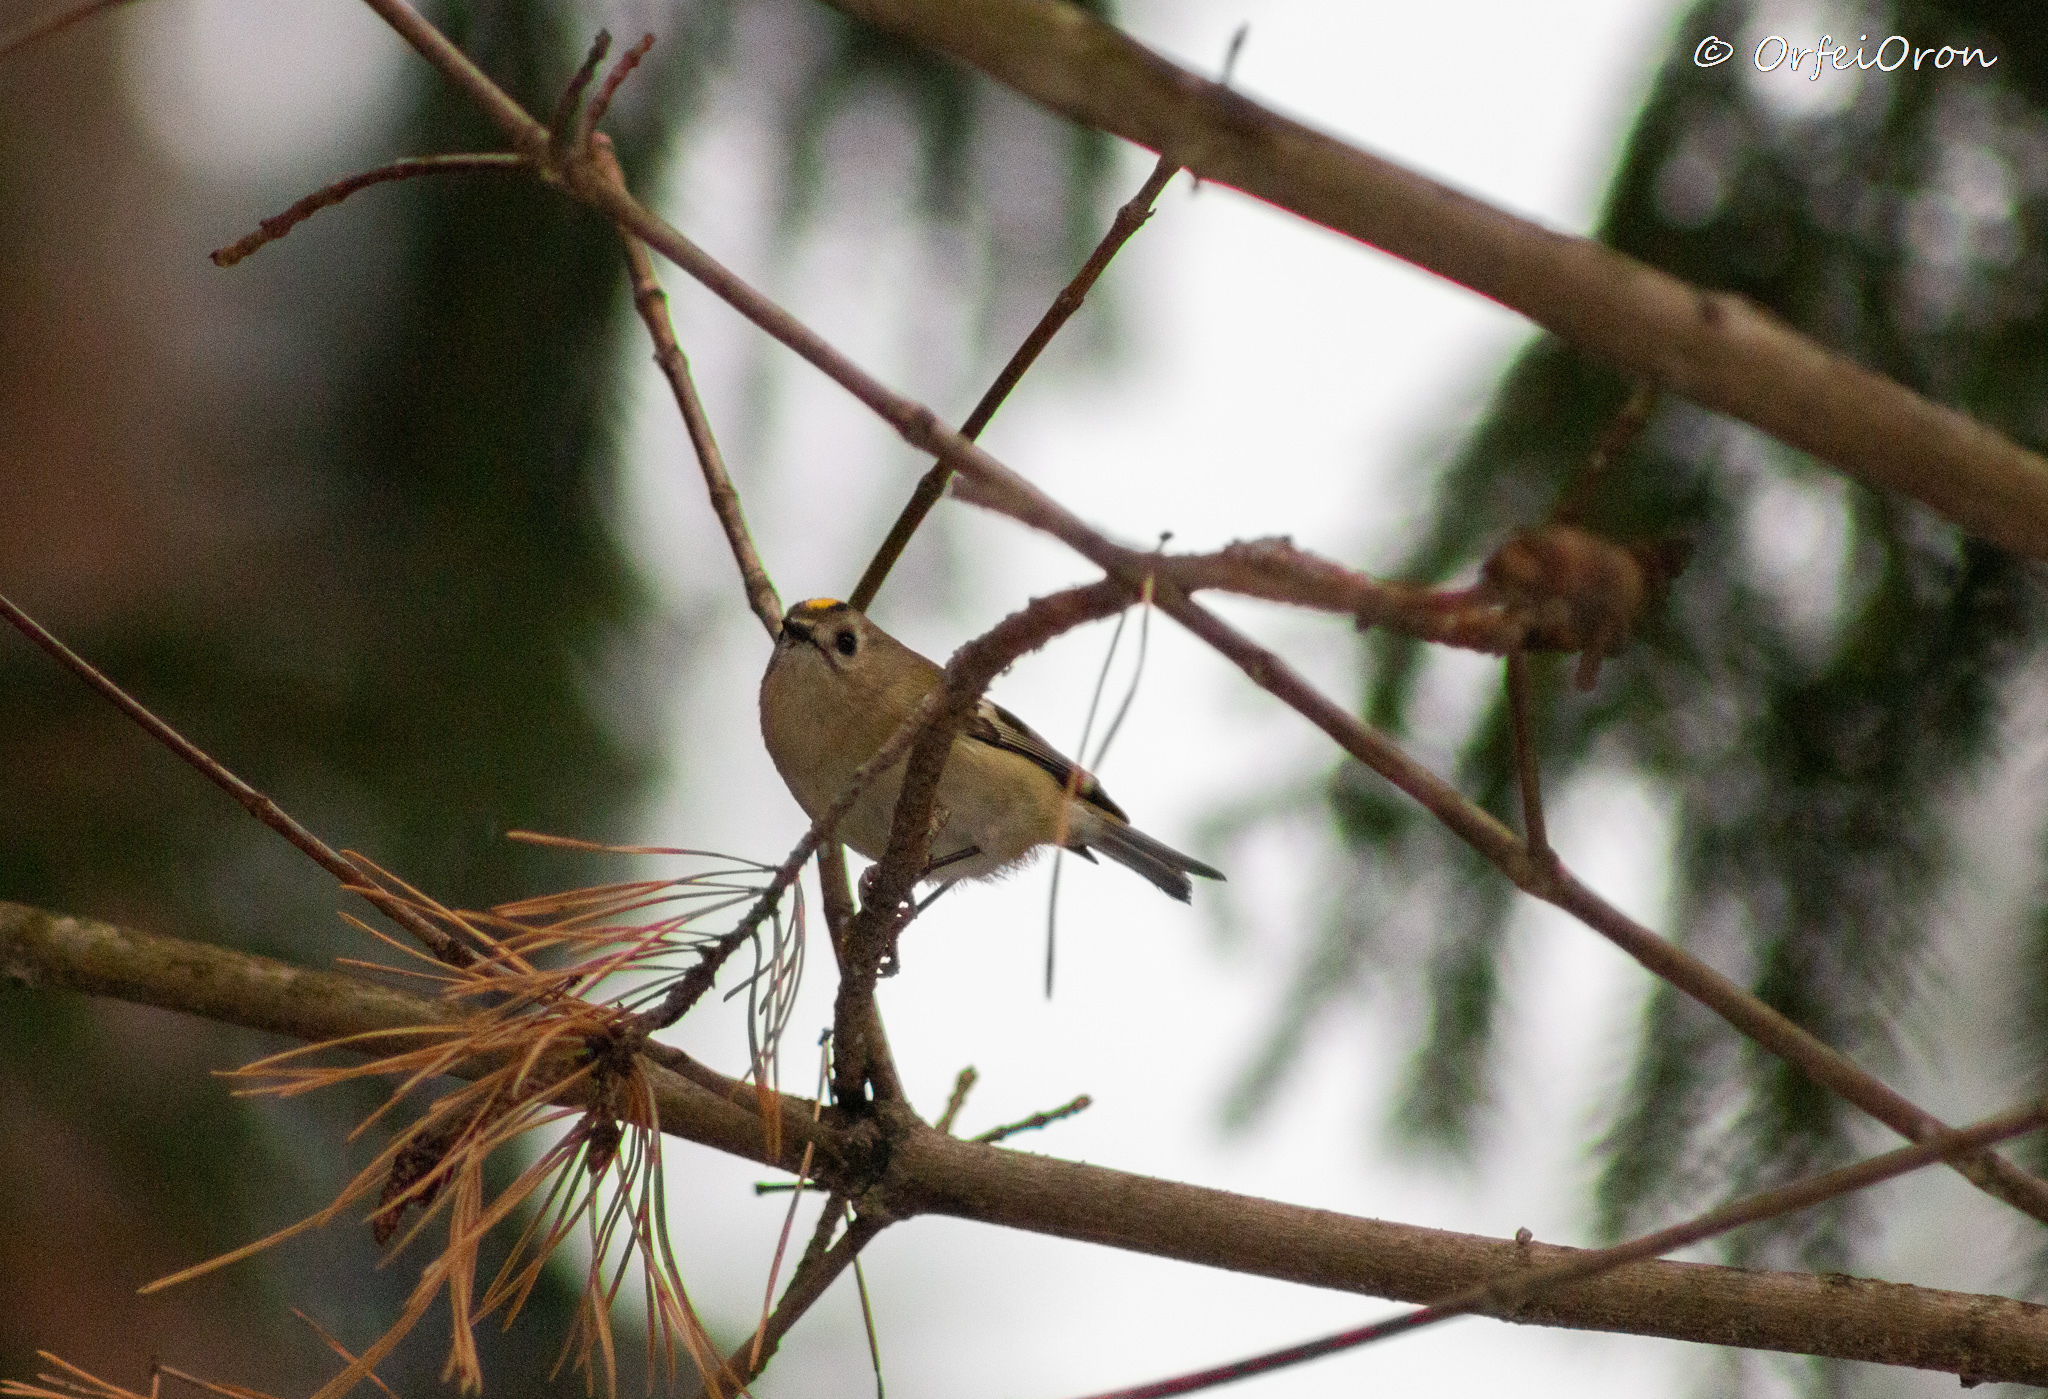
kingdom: Animalia
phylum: Chordata
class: Aves
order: Passeriformes
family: Regulidae
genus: Regulus
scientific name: Regulus regulus
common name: Goldcrest
